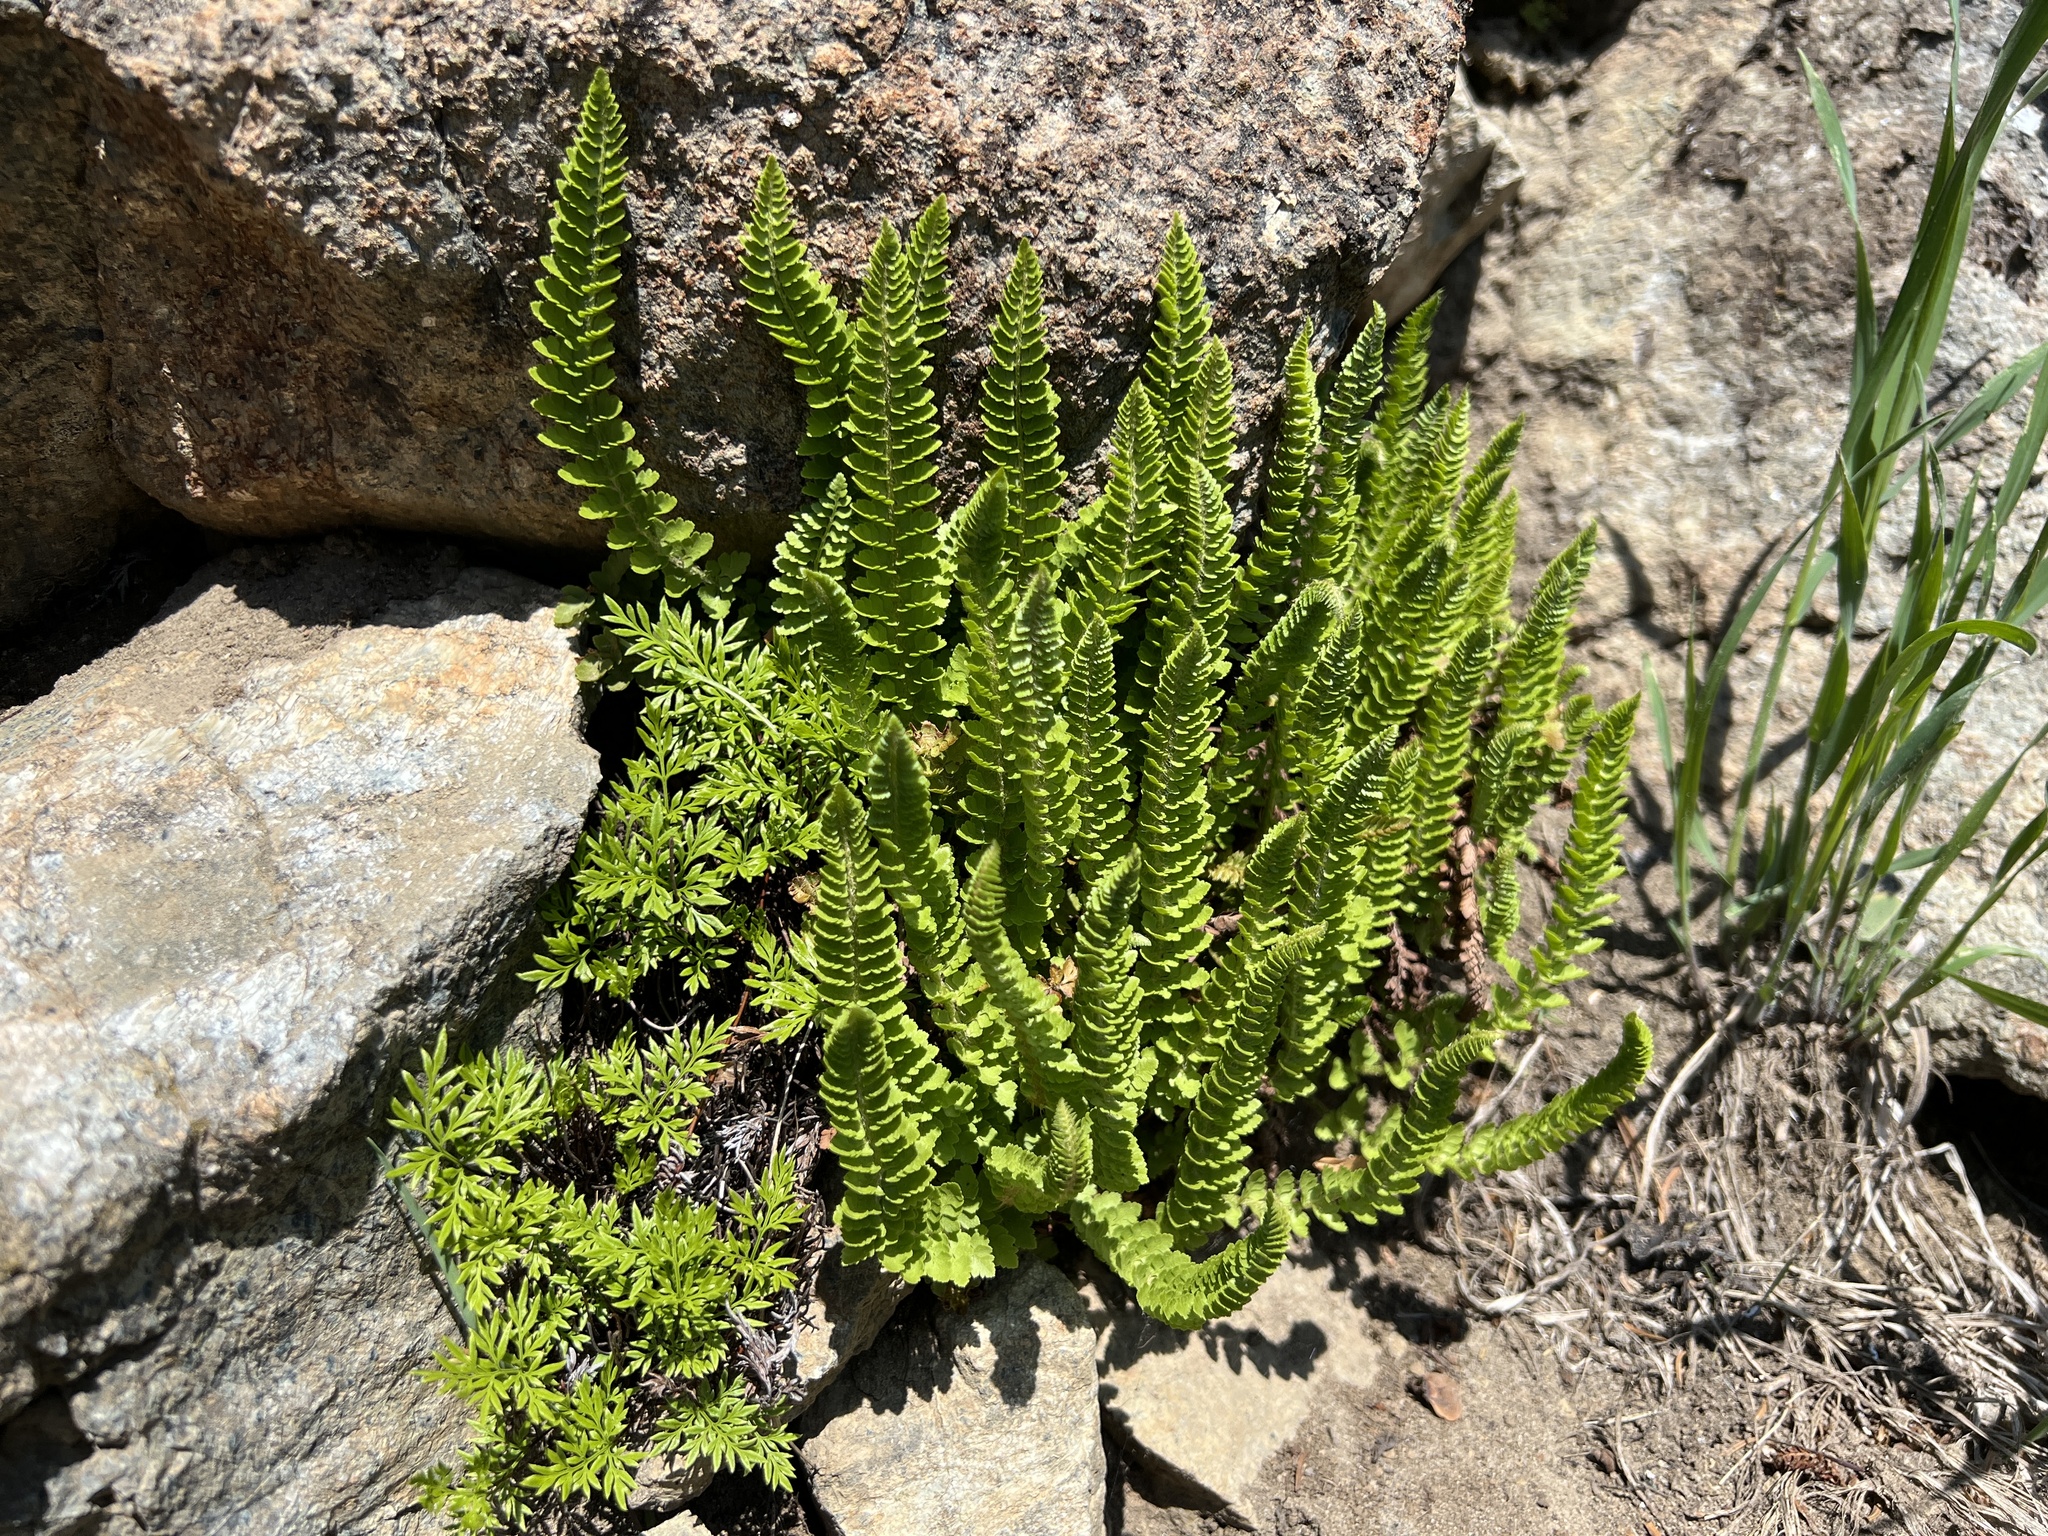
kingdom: Plantae
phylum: Tracheophyta
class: Polypodiopsida
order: Polypodiales
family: Dryopteridaceae
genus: Polystichum
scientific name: Polystichum lemmonii
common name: Lemmon's holly fern
